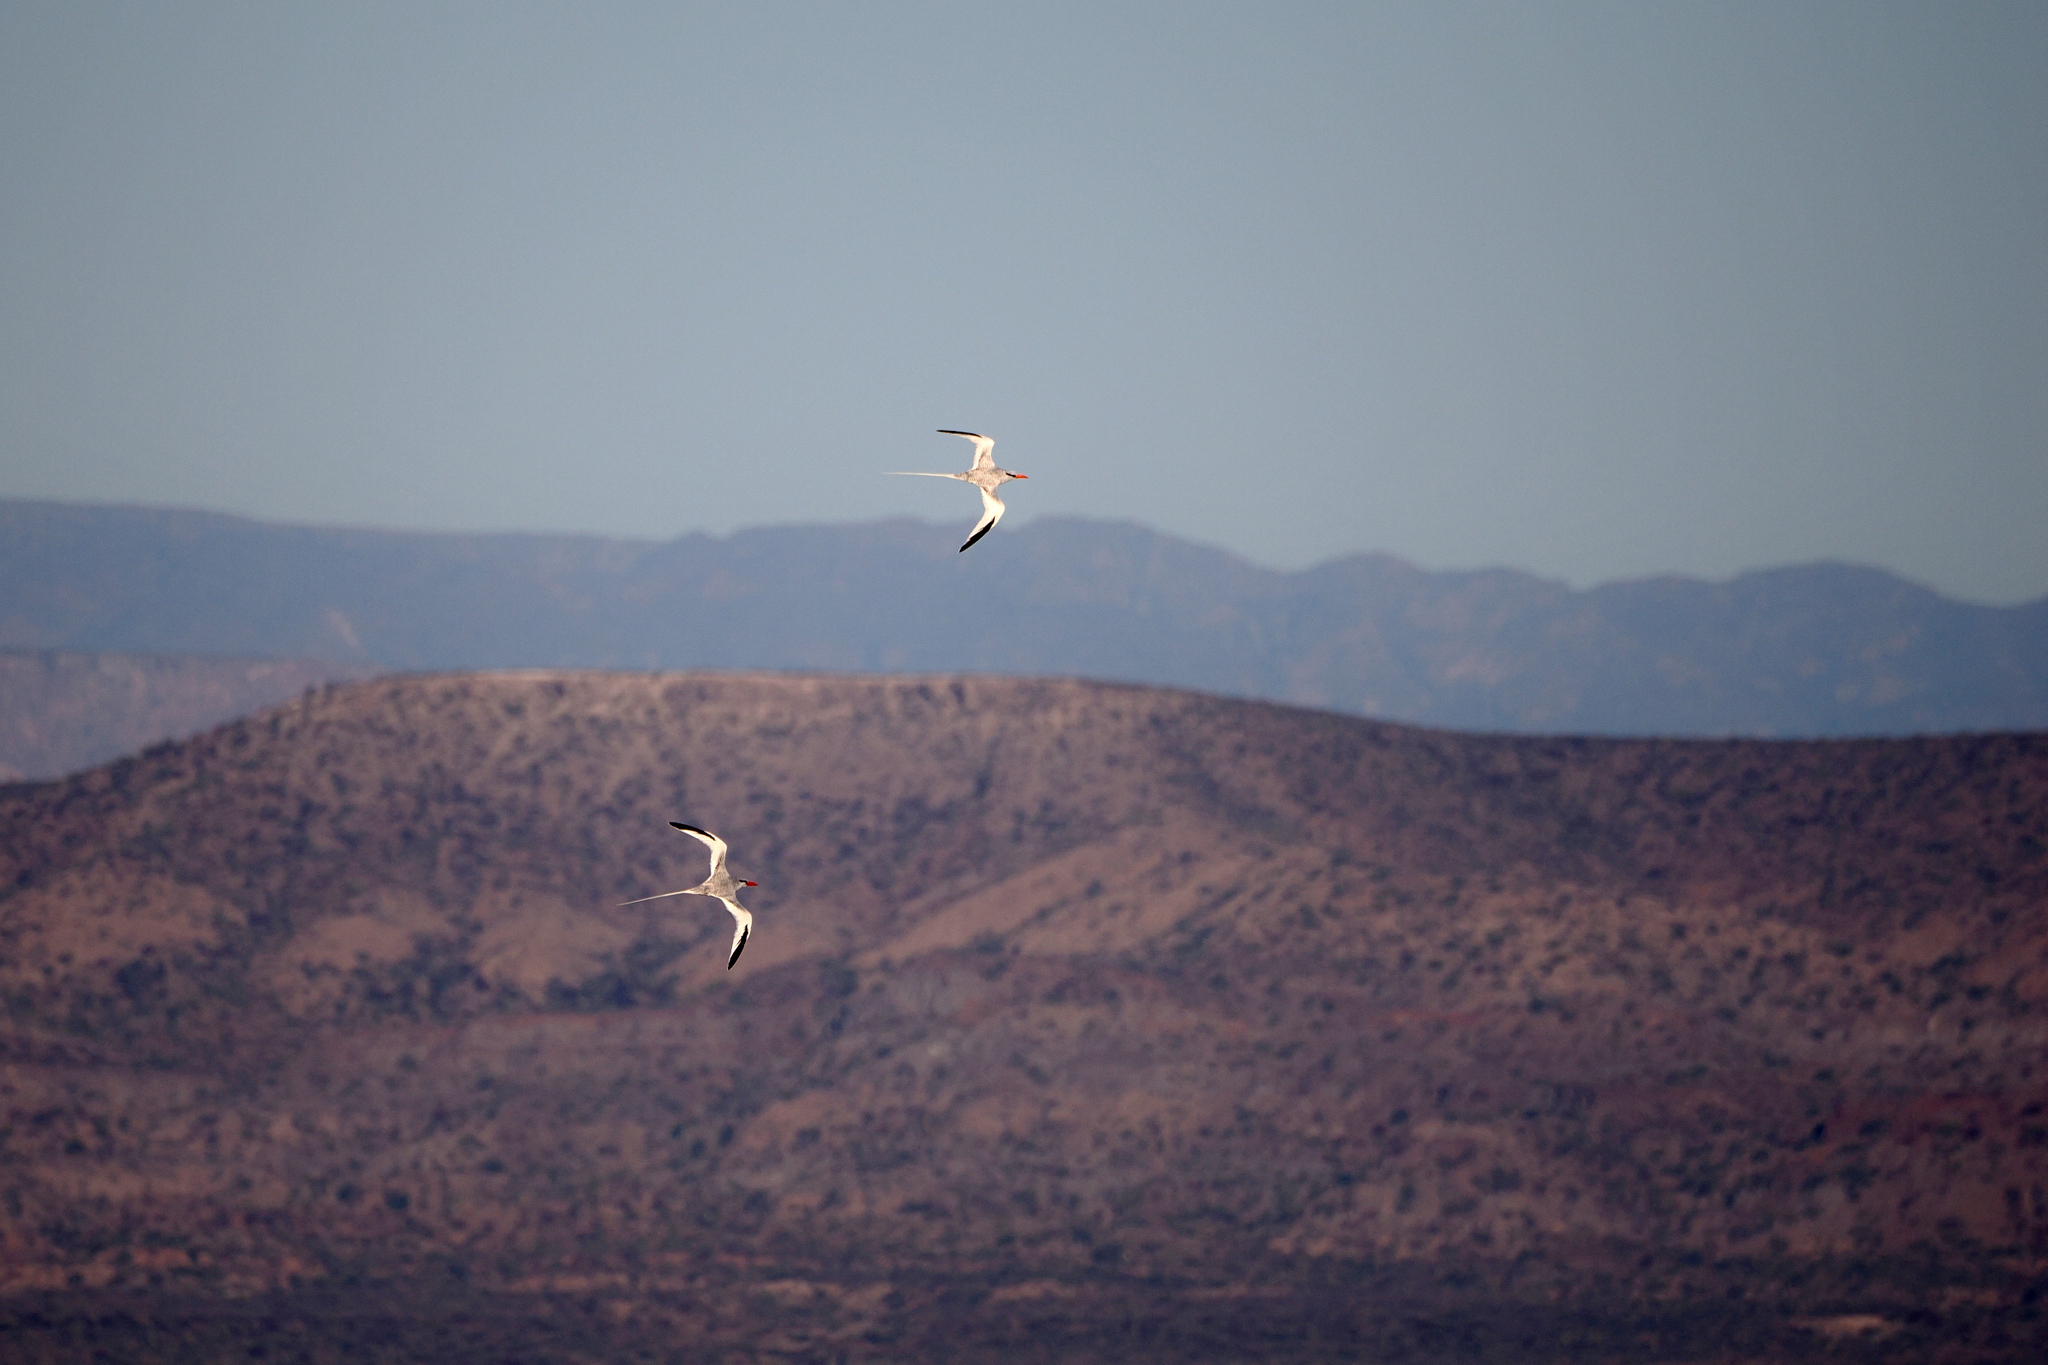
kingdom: Animalia
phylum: Chordata
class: Aves
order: Phaethontiformes
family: Phaethontidae
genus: Phaethon
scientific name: Phaethon aethereus
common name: Red-billed tropicbird
